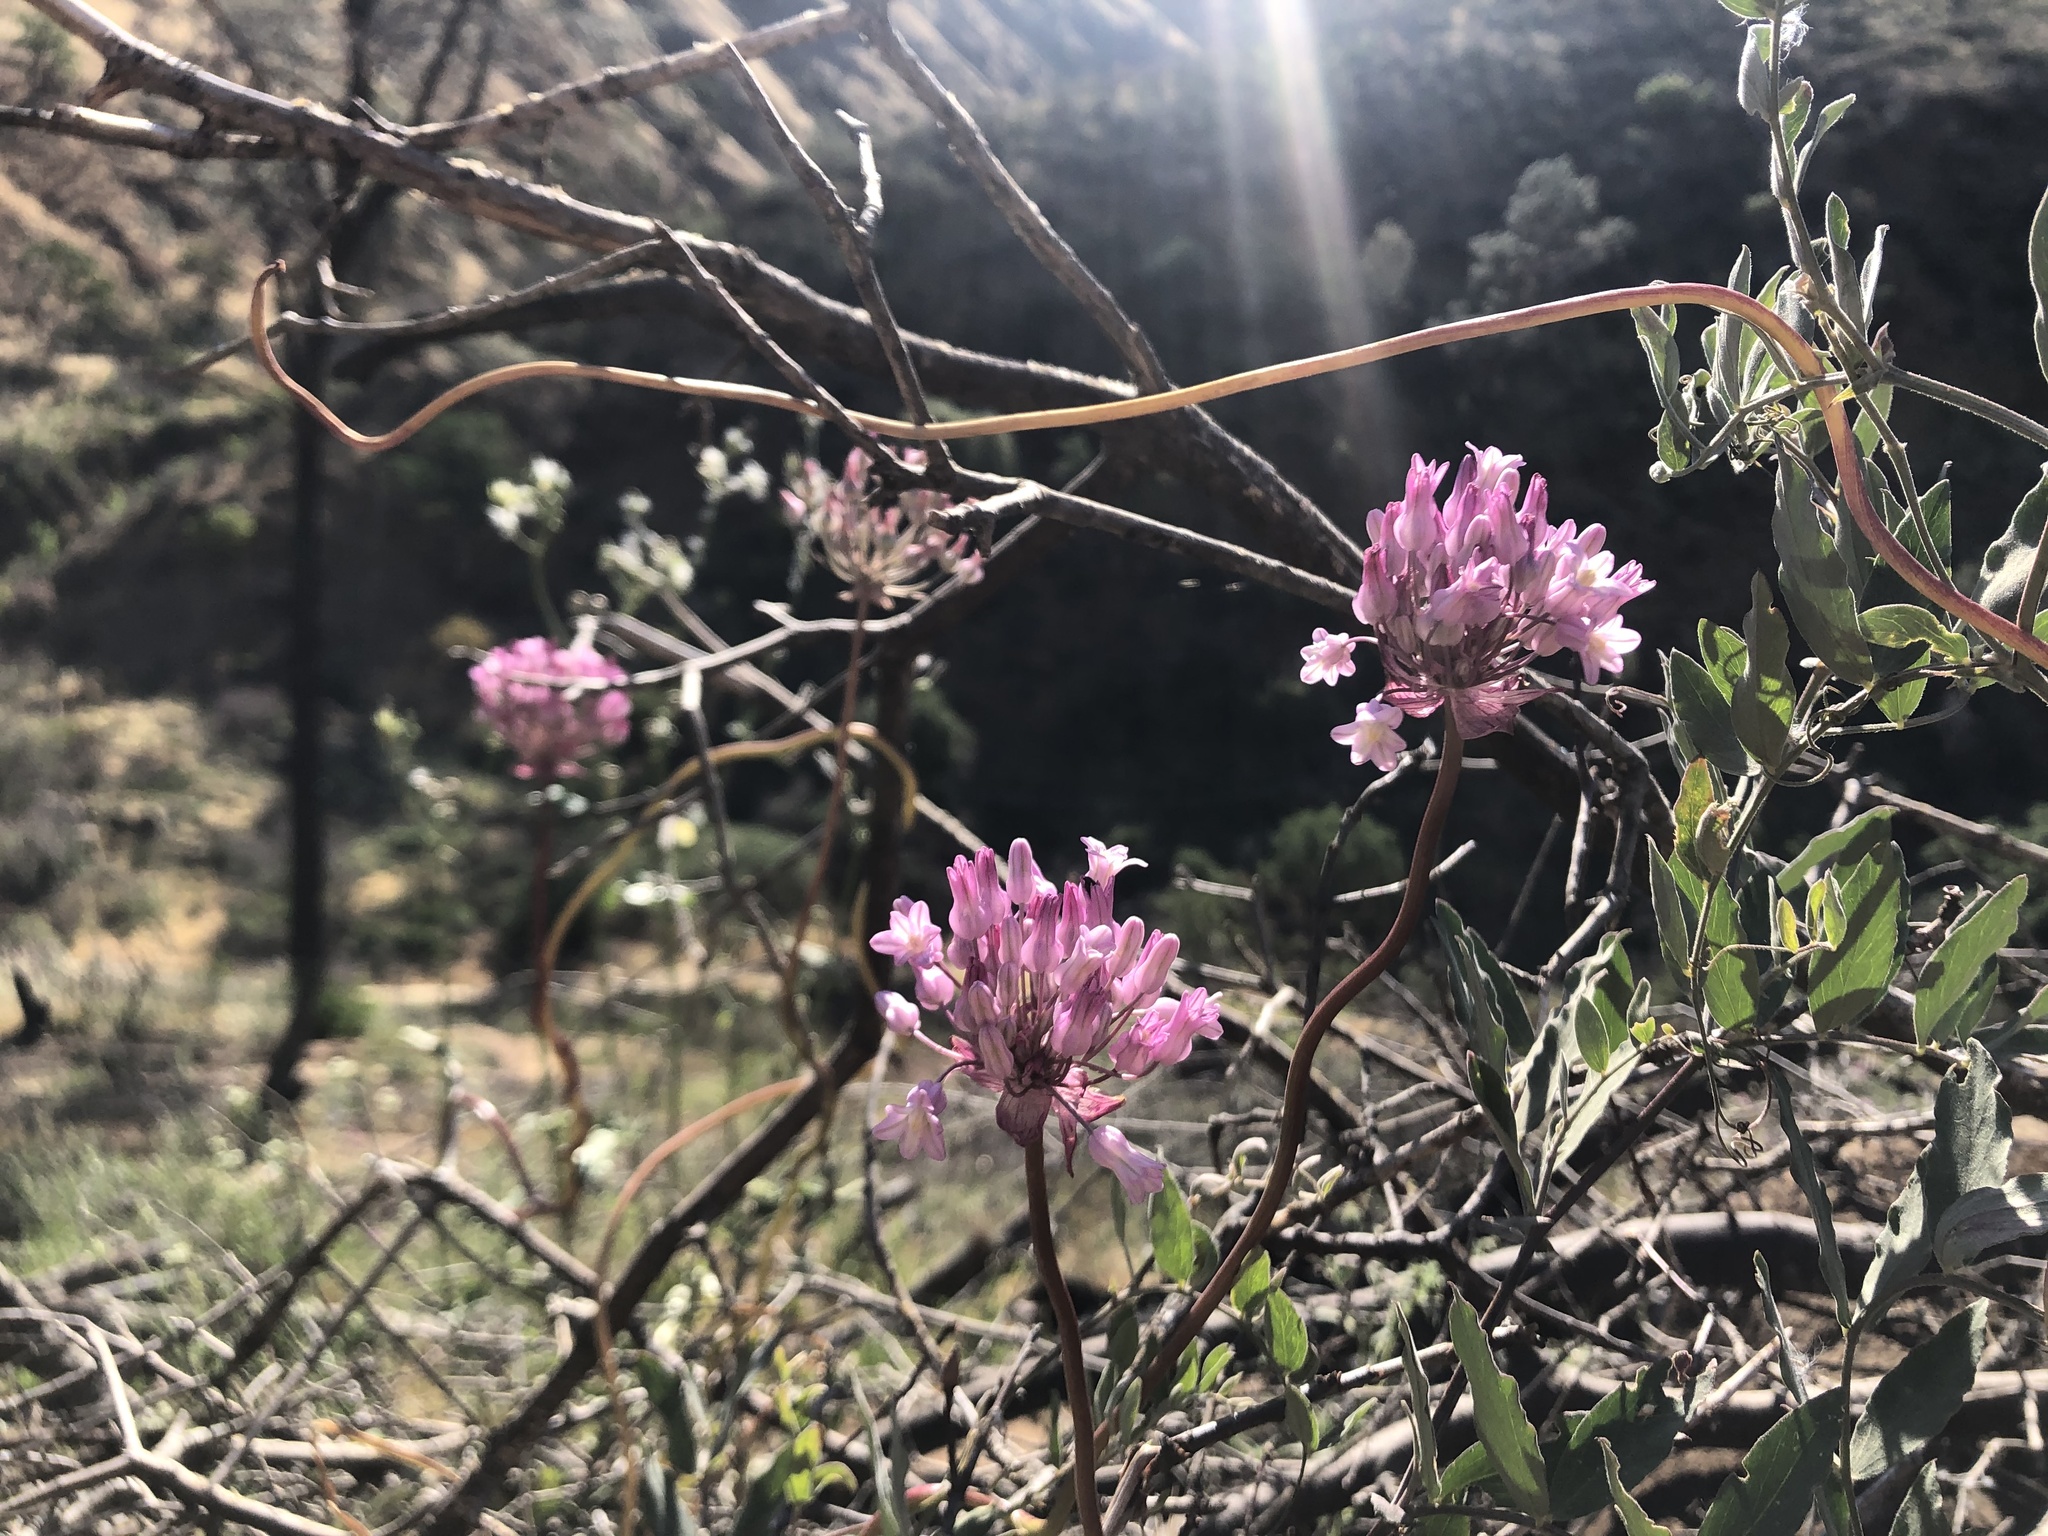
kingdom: Plantae
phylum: Tracheophyta
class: Liliopsida
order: Asparagales
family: Asparagaceae
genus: Dichelostemma
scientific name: Dichelostemma volubile
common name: Trining brodiaea
